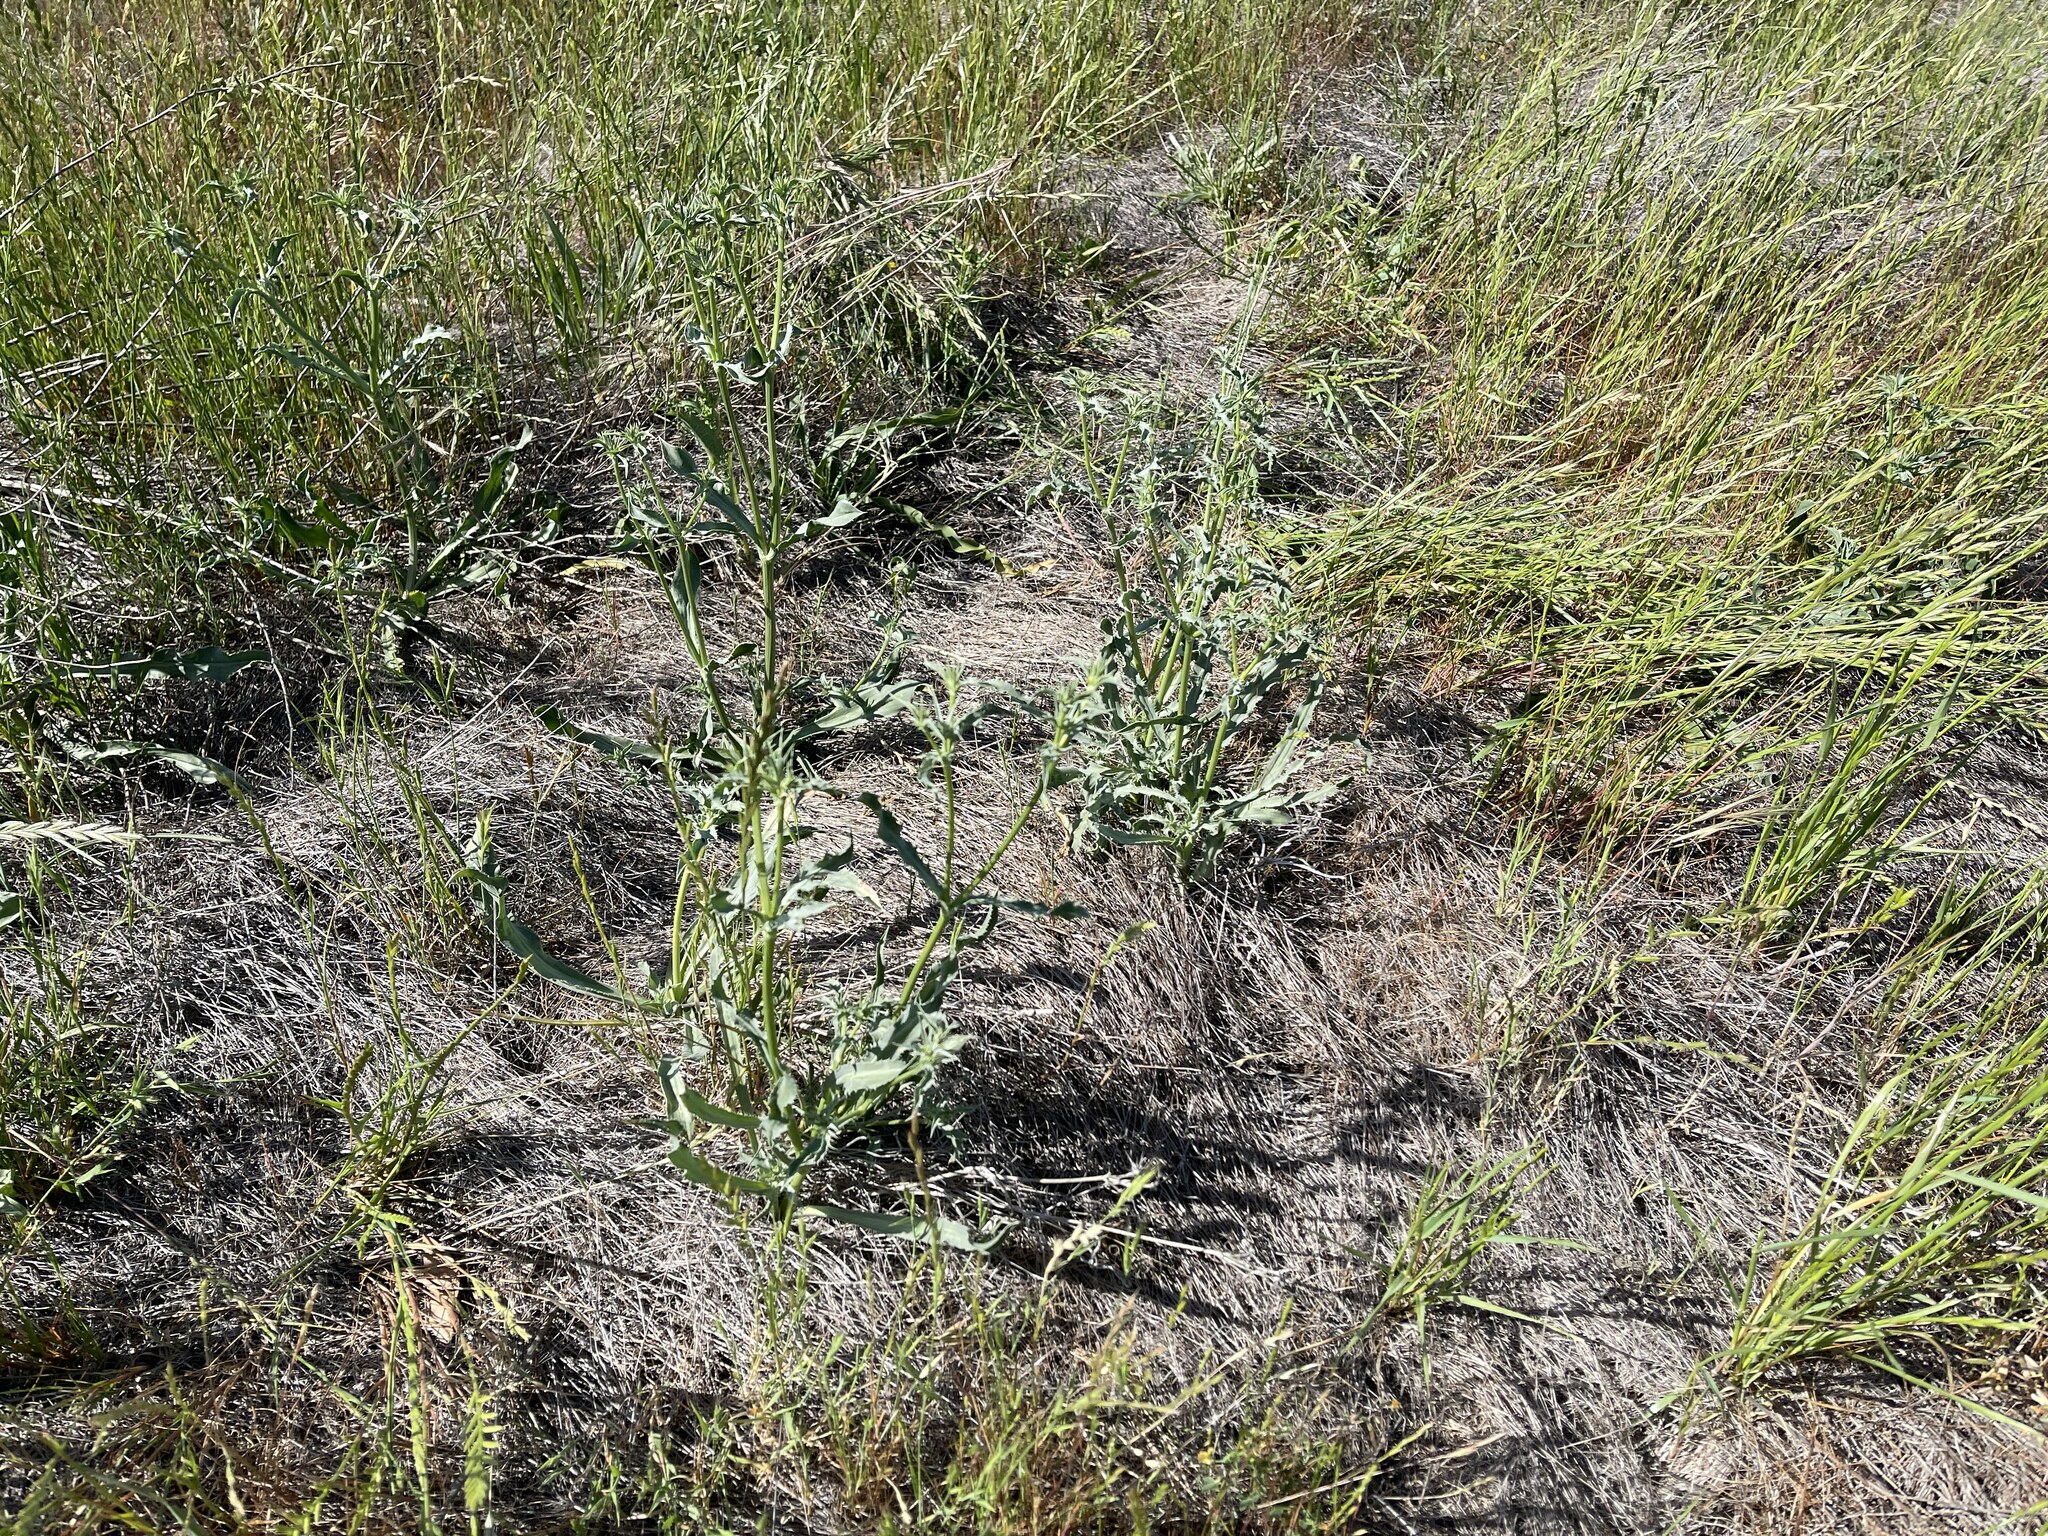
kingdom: Plantae
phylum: Tracheophyta
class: Magnoliopsida
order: Apiales
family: Apiaceae
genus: Eryngium
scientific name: Eryngium aristulatum
